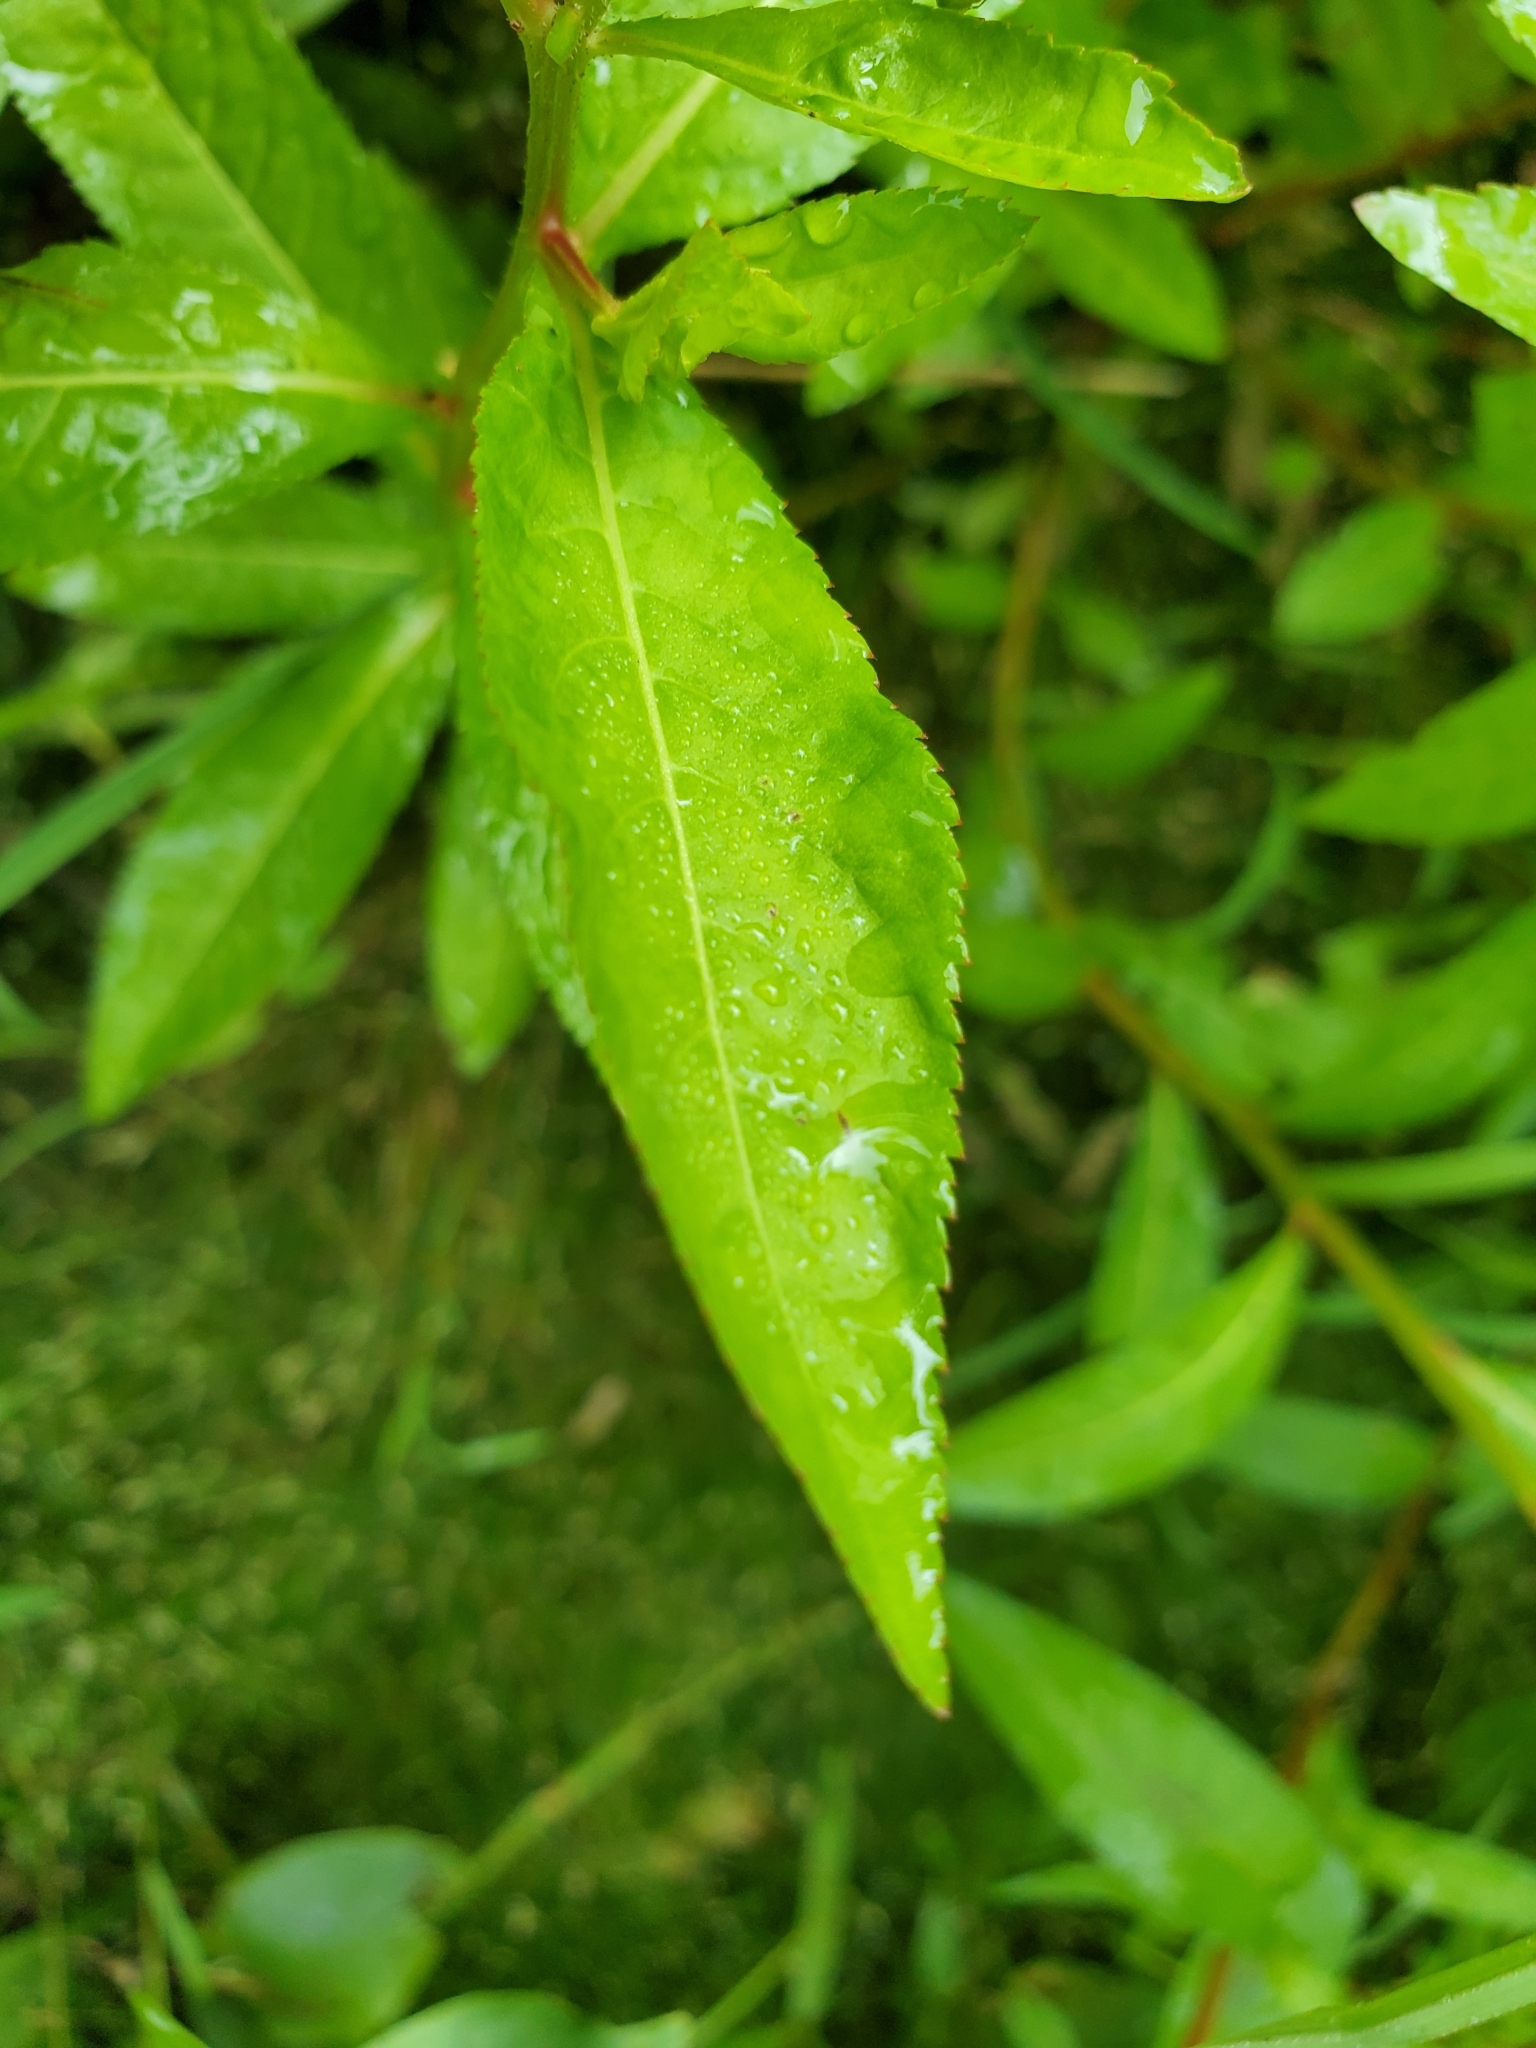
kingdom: Plantae
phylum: Tracheophyta
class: Magnoliopsida
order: Saxifragales
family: Penthoraceae
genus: Penthorum
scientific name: Penthorum sedoides
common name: Ditch stonecrop
